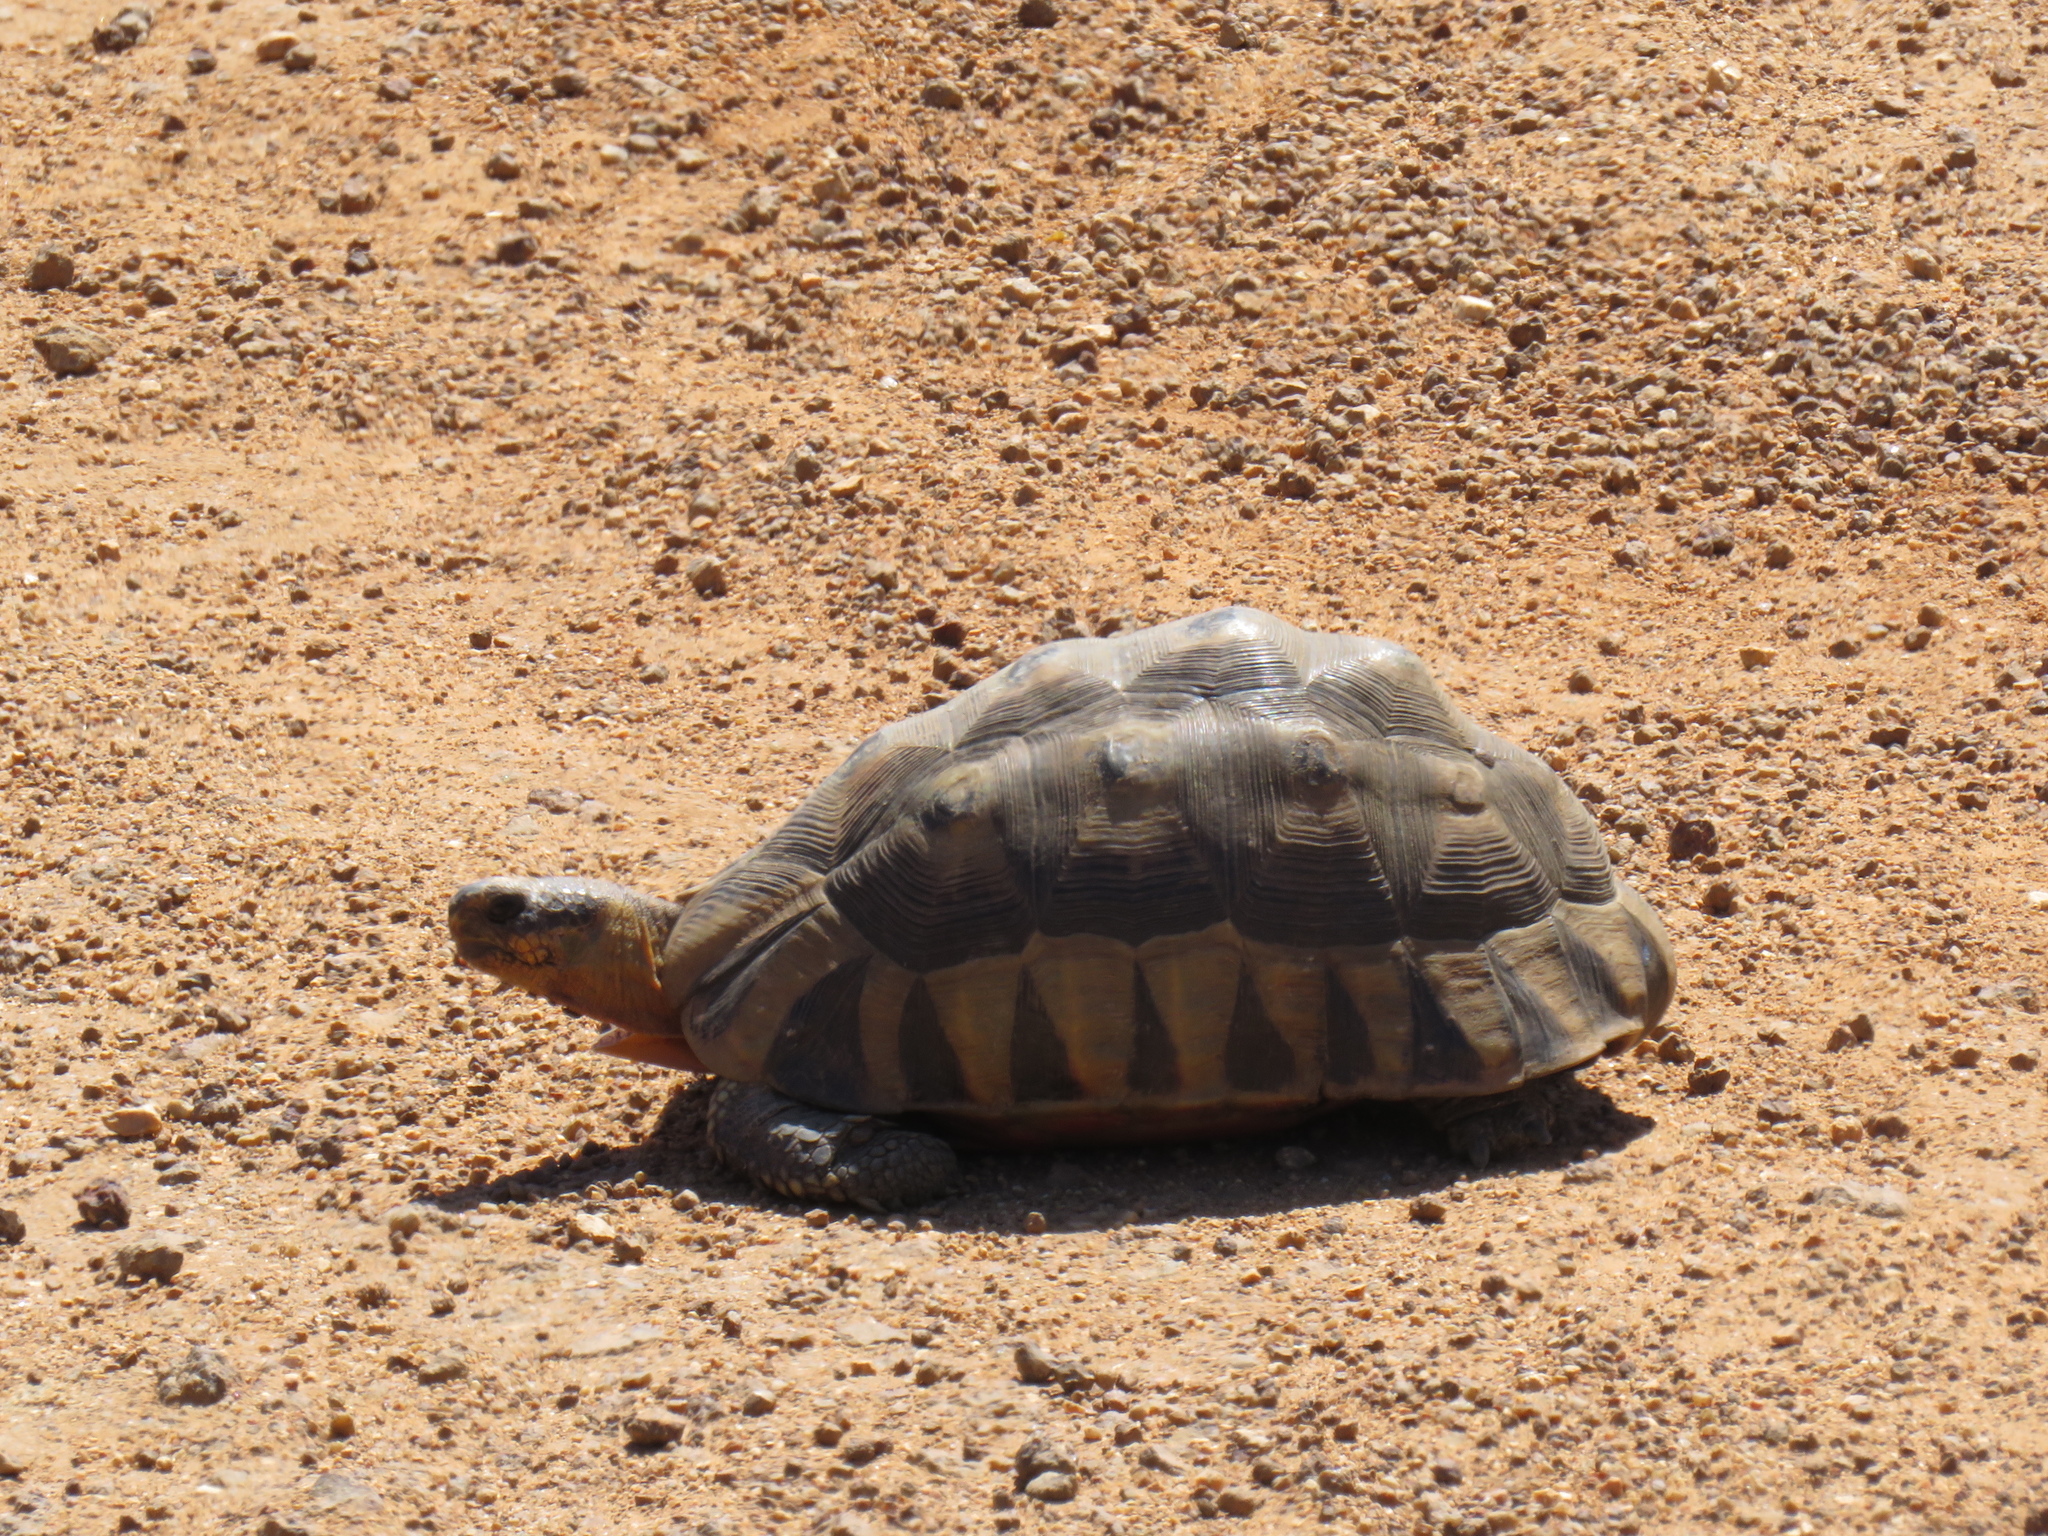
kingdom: Animalia
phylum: Chordata
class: Testudines
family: Testudinidae
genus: Chersina
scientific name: Chersina angulata
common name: South african bowsprit tortoise
